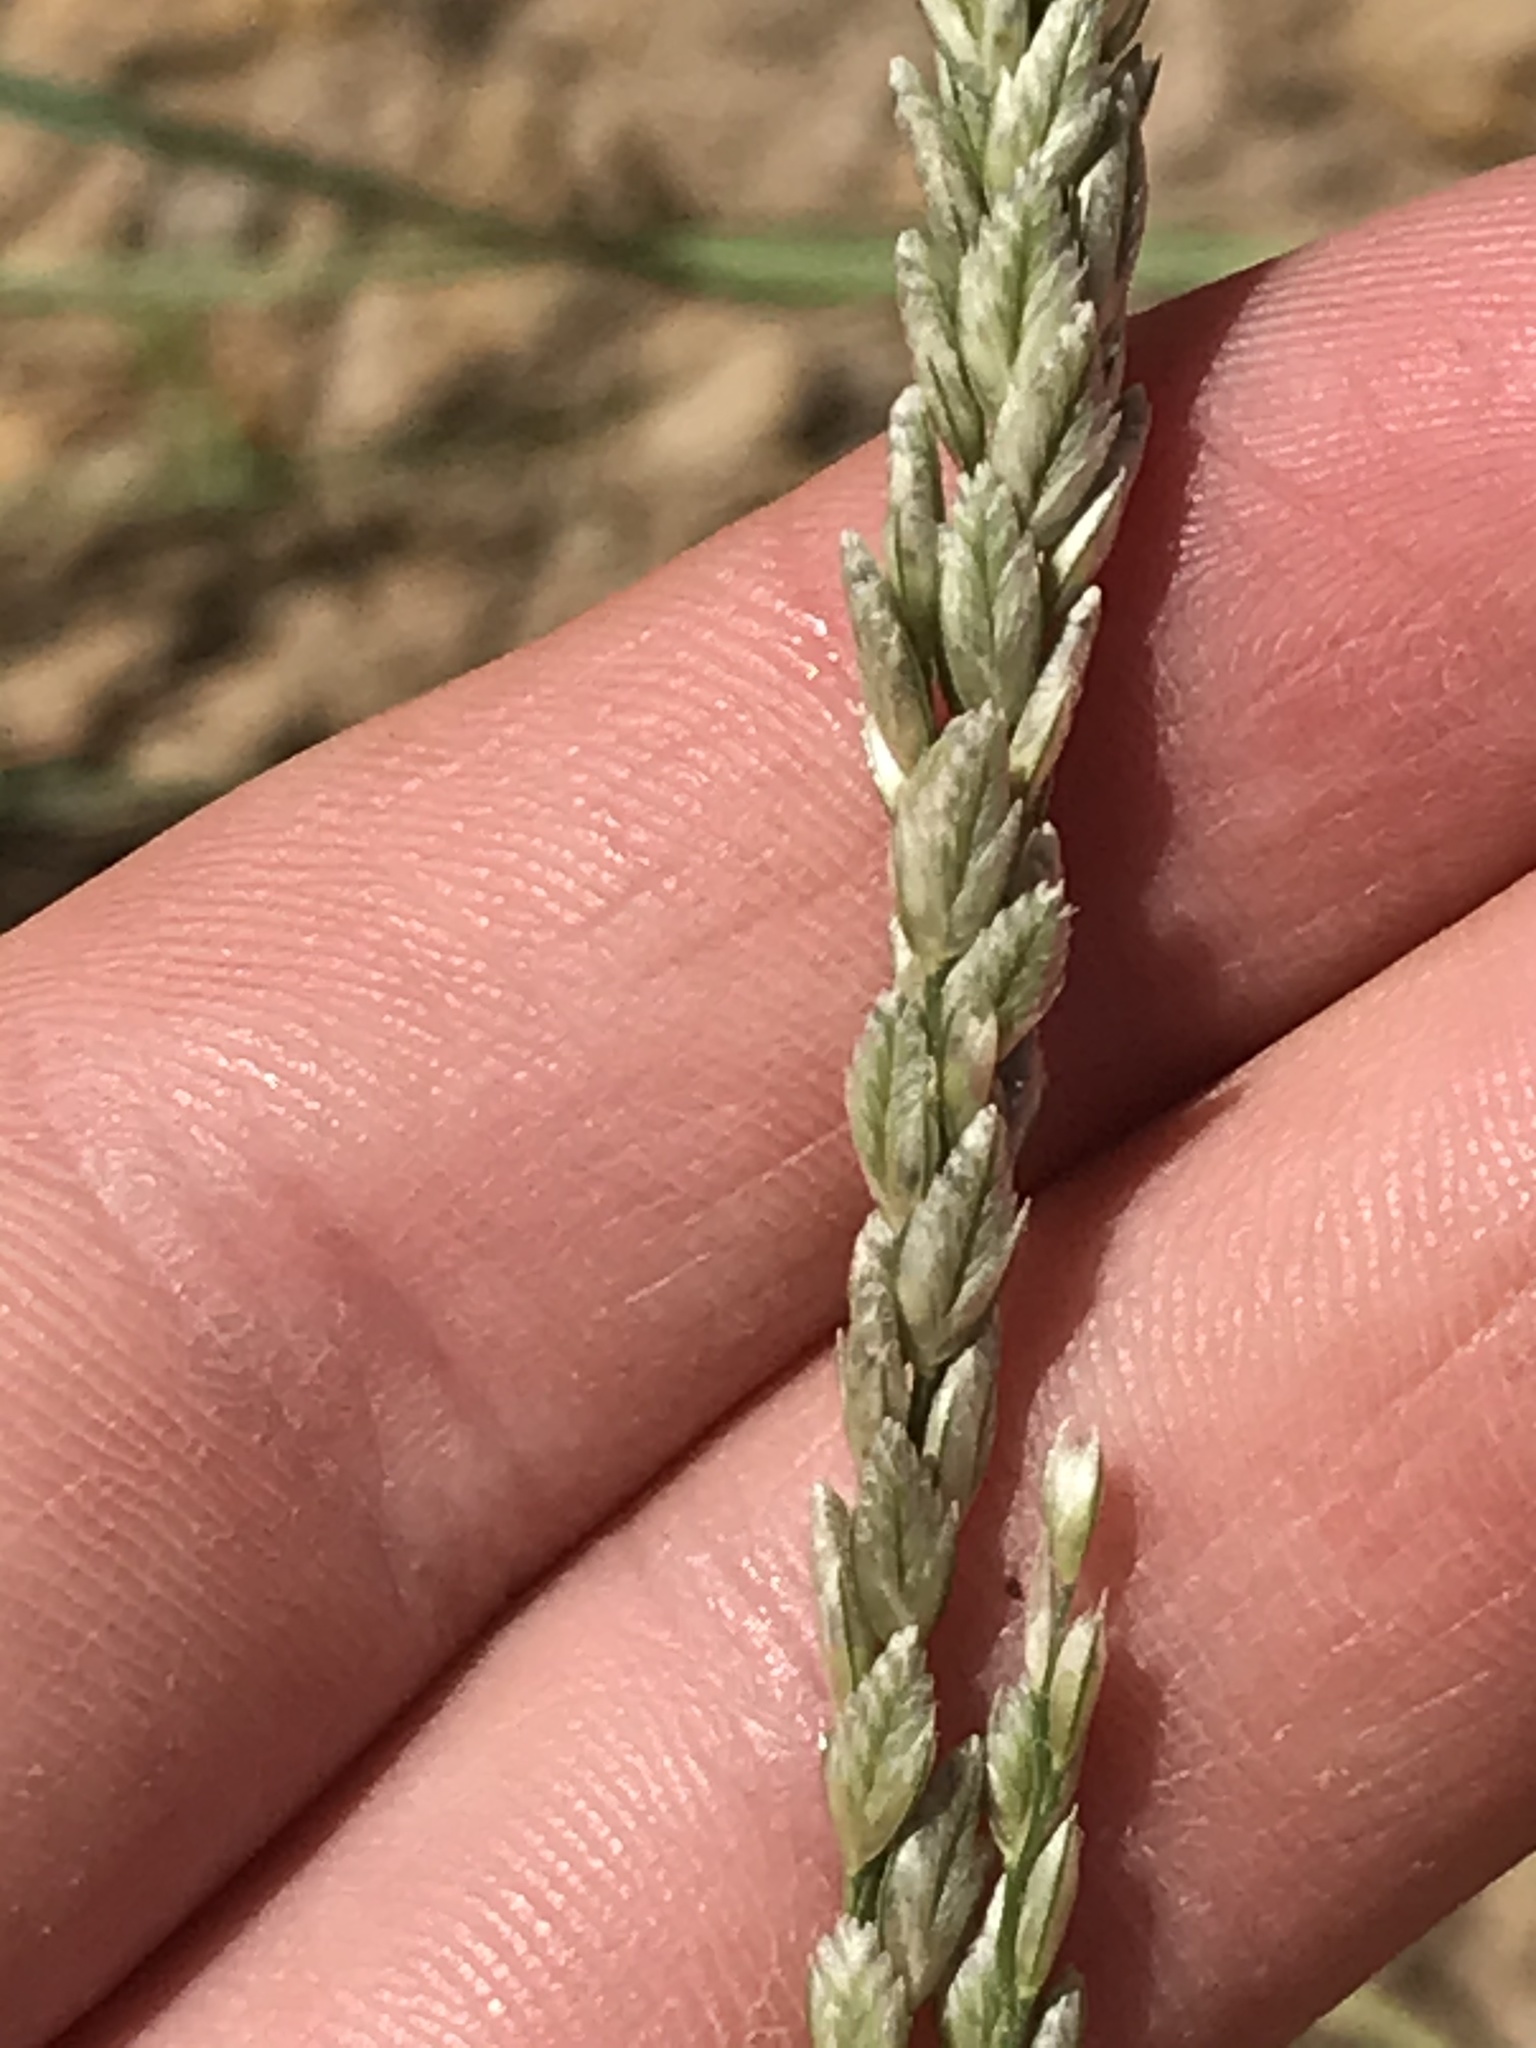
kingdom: Plantae
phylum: Tracheophyta
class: Liliopsida
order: Poales
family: Poaceae
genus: Tridens
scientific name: Tridens albescens
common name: White tridens
